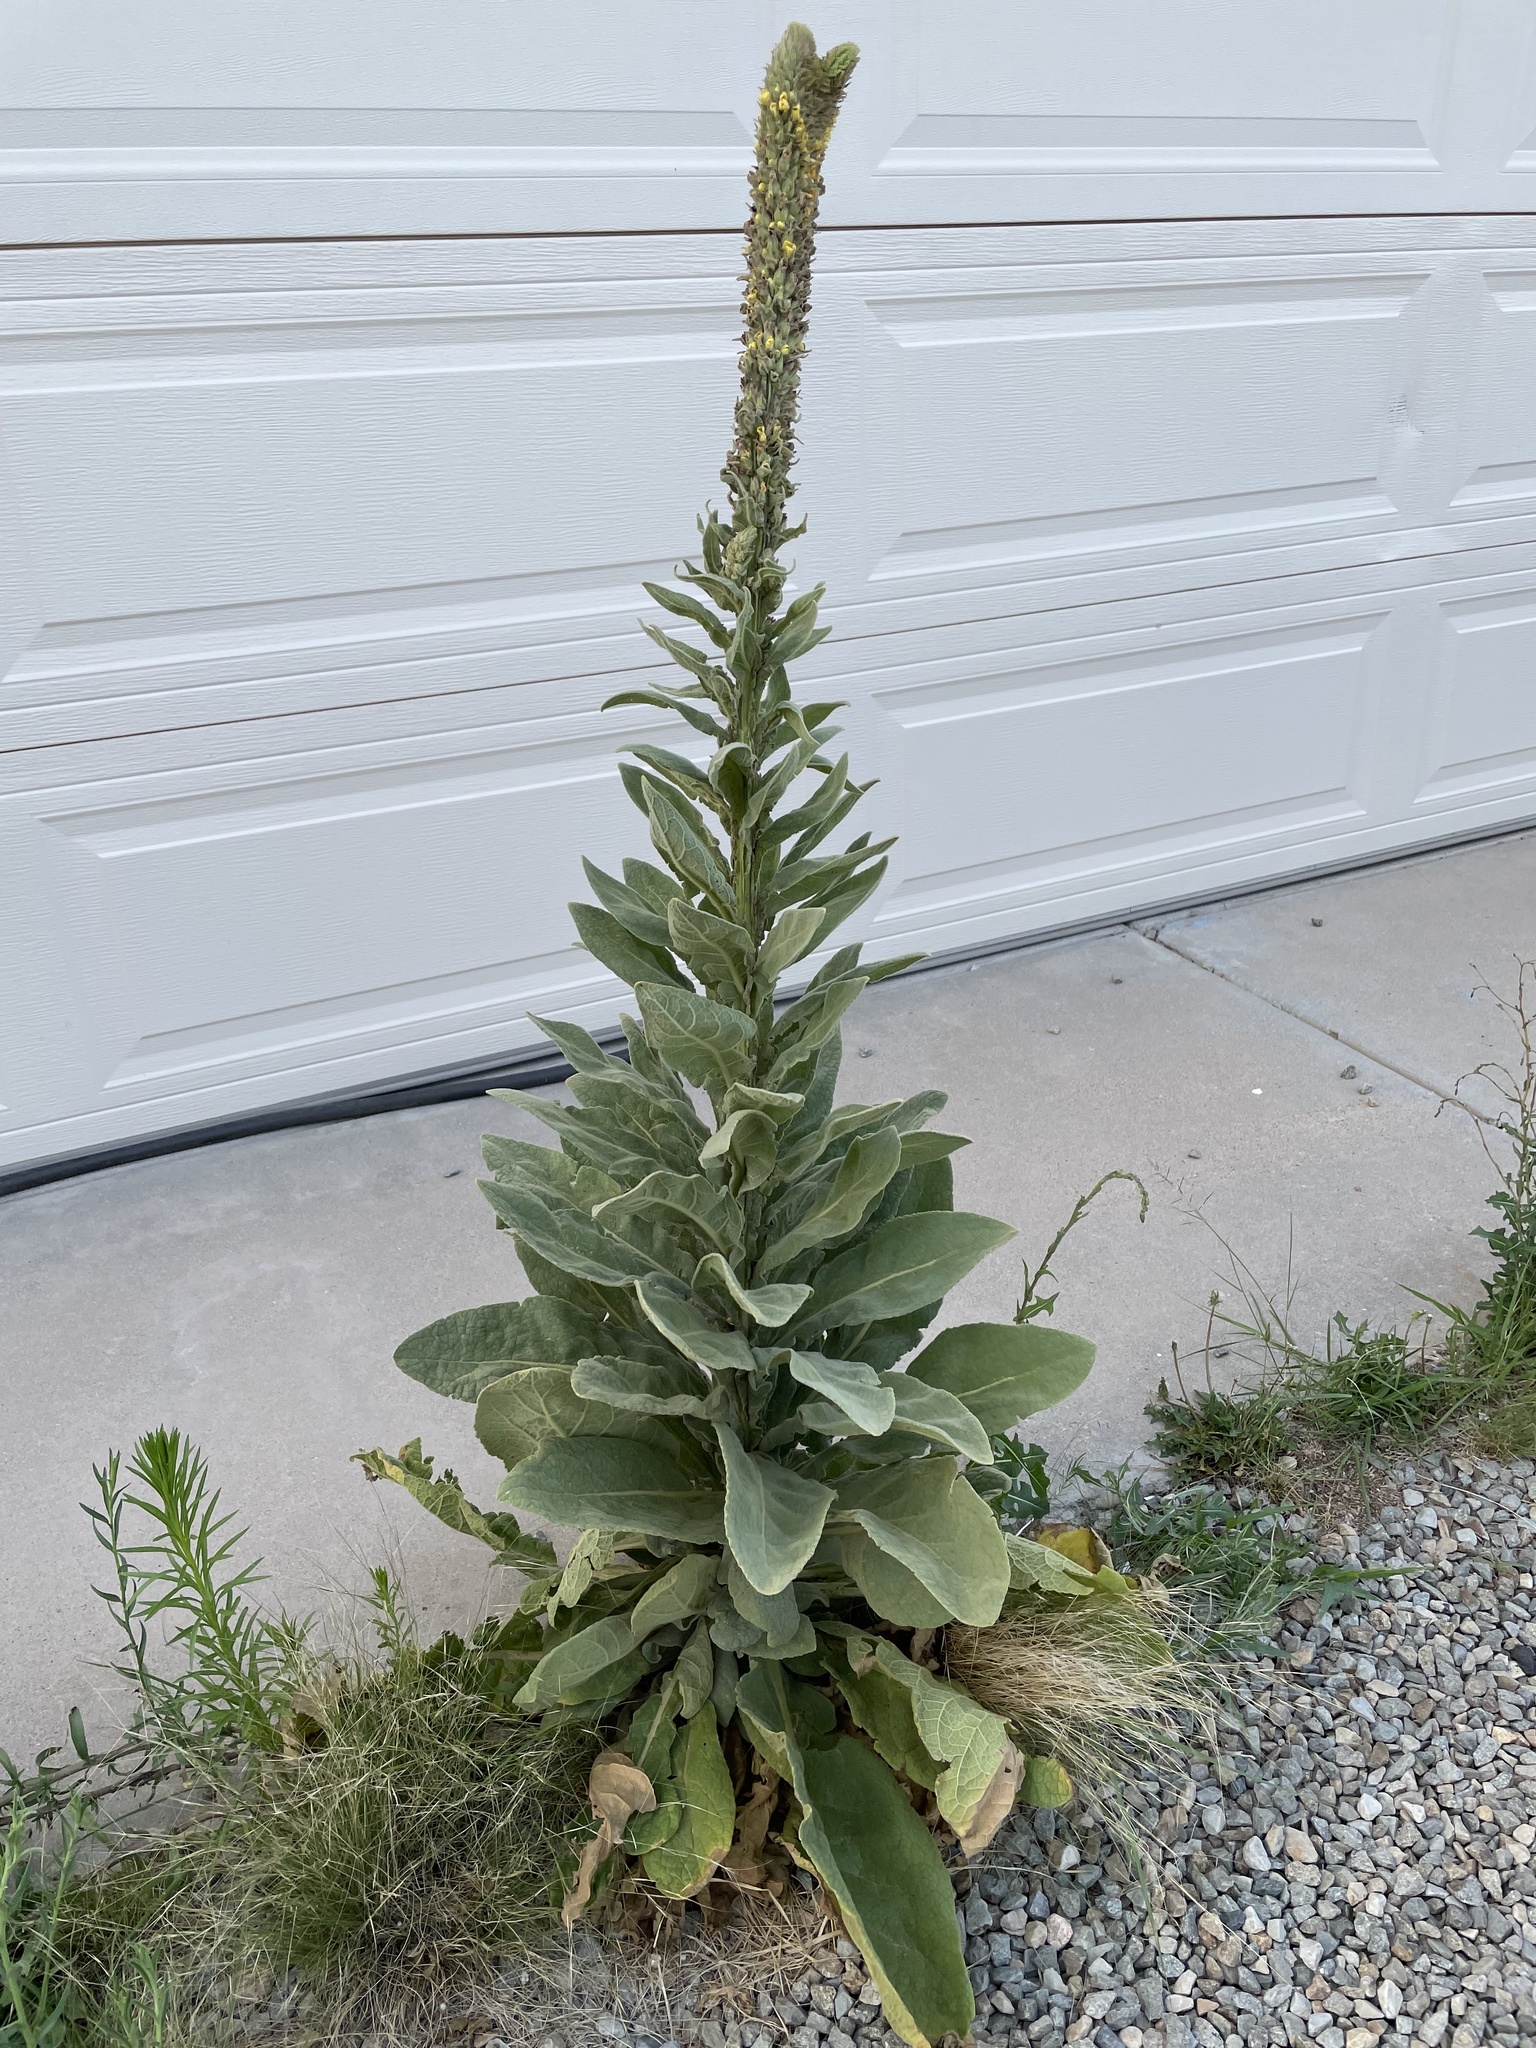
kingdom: Plantae
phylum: Tracheophyta
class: Magnoliopsida
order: Lamiales
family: Scrophulariaceae
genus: Verbascum
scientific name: Verbascum thapsus
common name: Common mullein
